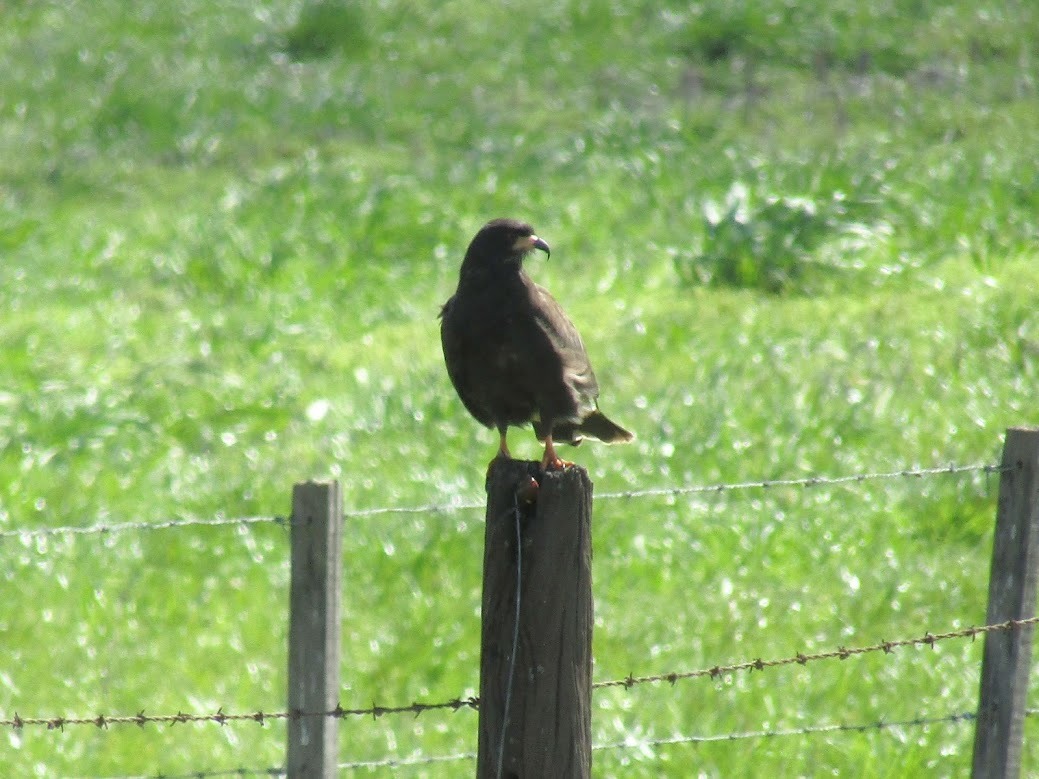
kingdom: Animalia
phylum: Chordata
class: Aves
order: Accipitriformes
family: Accipitridae
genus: Rostrhamus
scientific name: Rostrhamus sociabilis
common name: Snail kite
